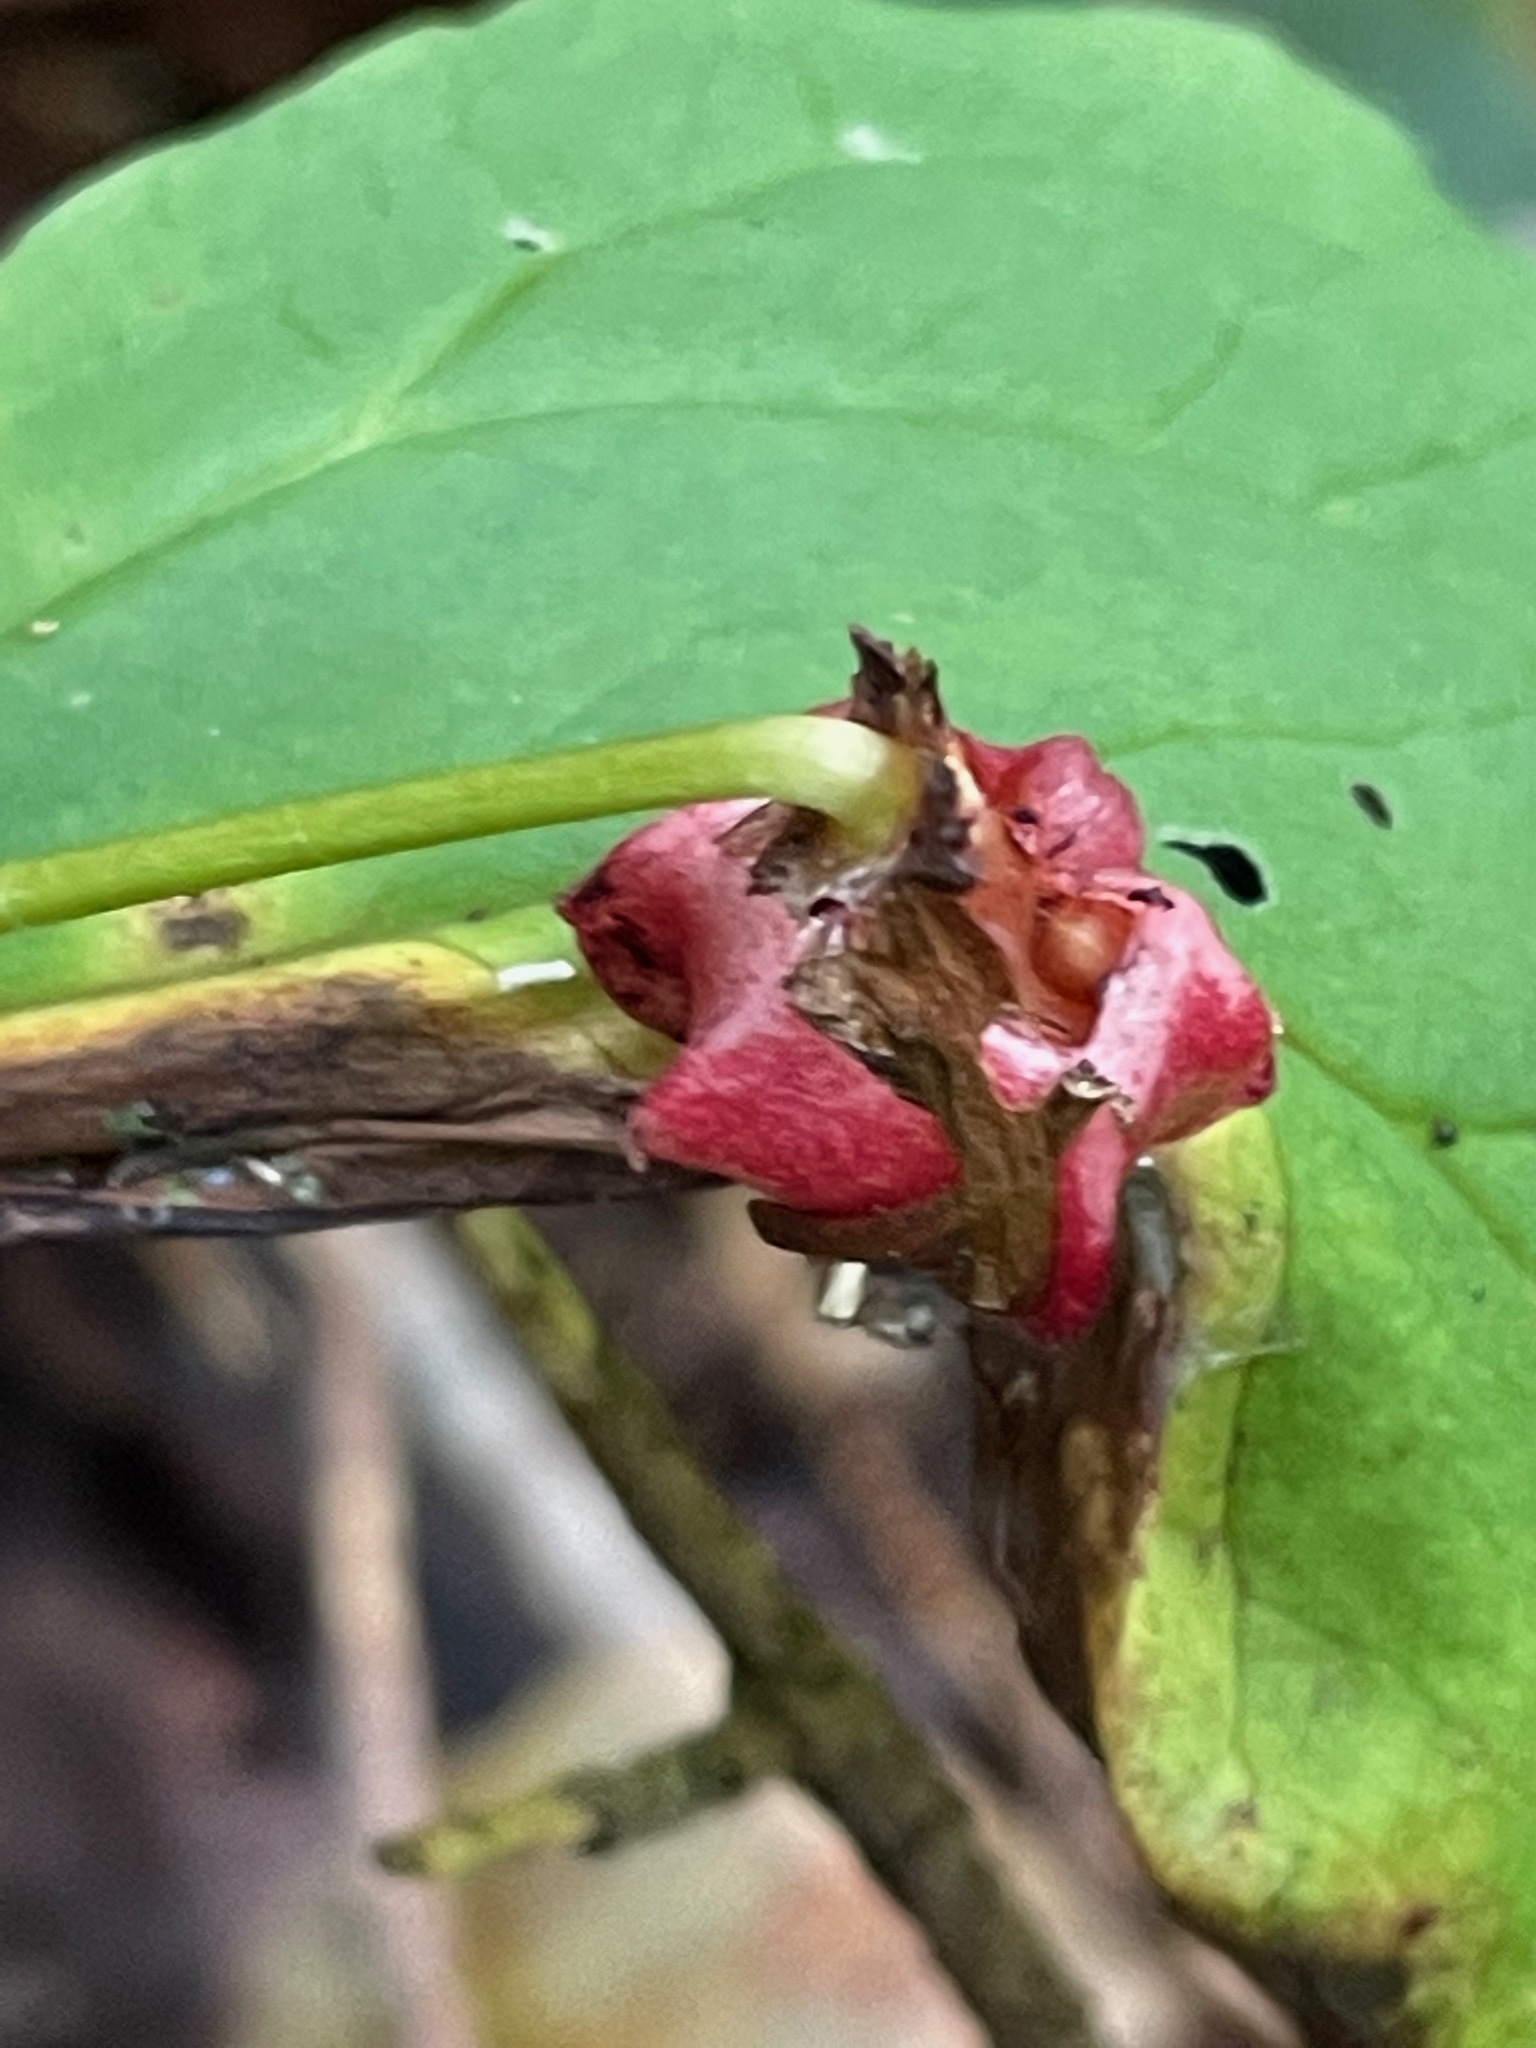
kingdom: Plantae
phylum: Tracheophyta
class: Liliopsida
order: Liliales
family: Melanthiaceae
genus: Trillium
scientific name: Trillium erectum
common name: Purple trillium
